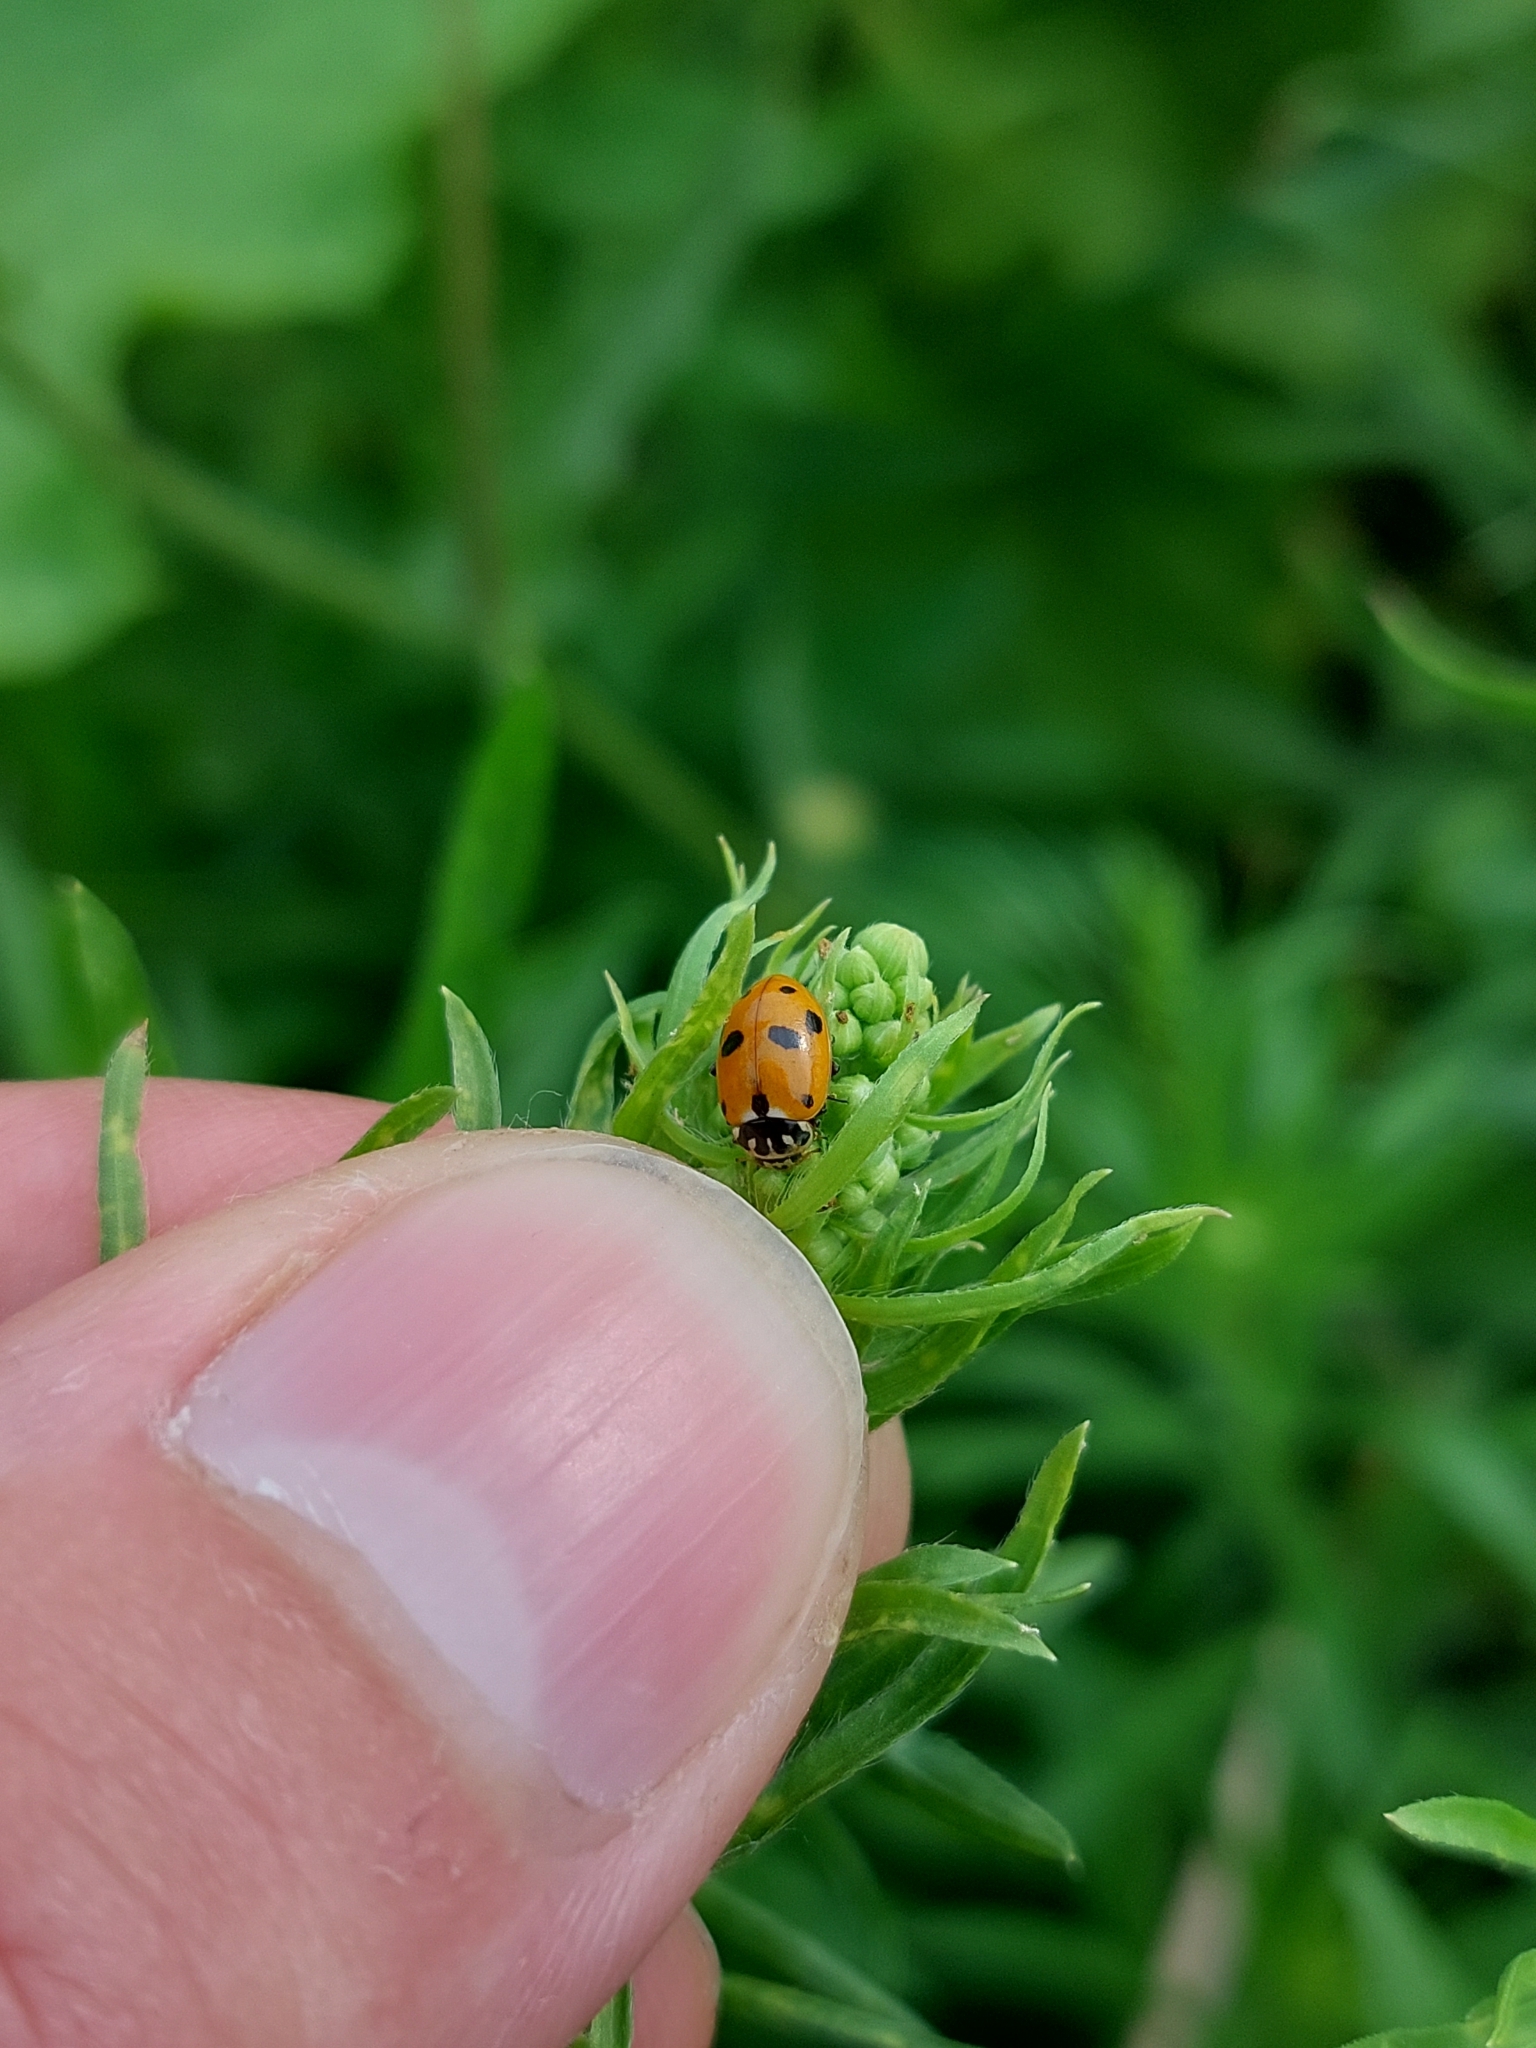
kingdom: Animalia
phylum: Arthropoda
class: Insecta
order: Coleoptera
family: Coccinellidae
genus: Hippodamia
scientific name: Hippodamia variegata
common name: Ladybird beetle
